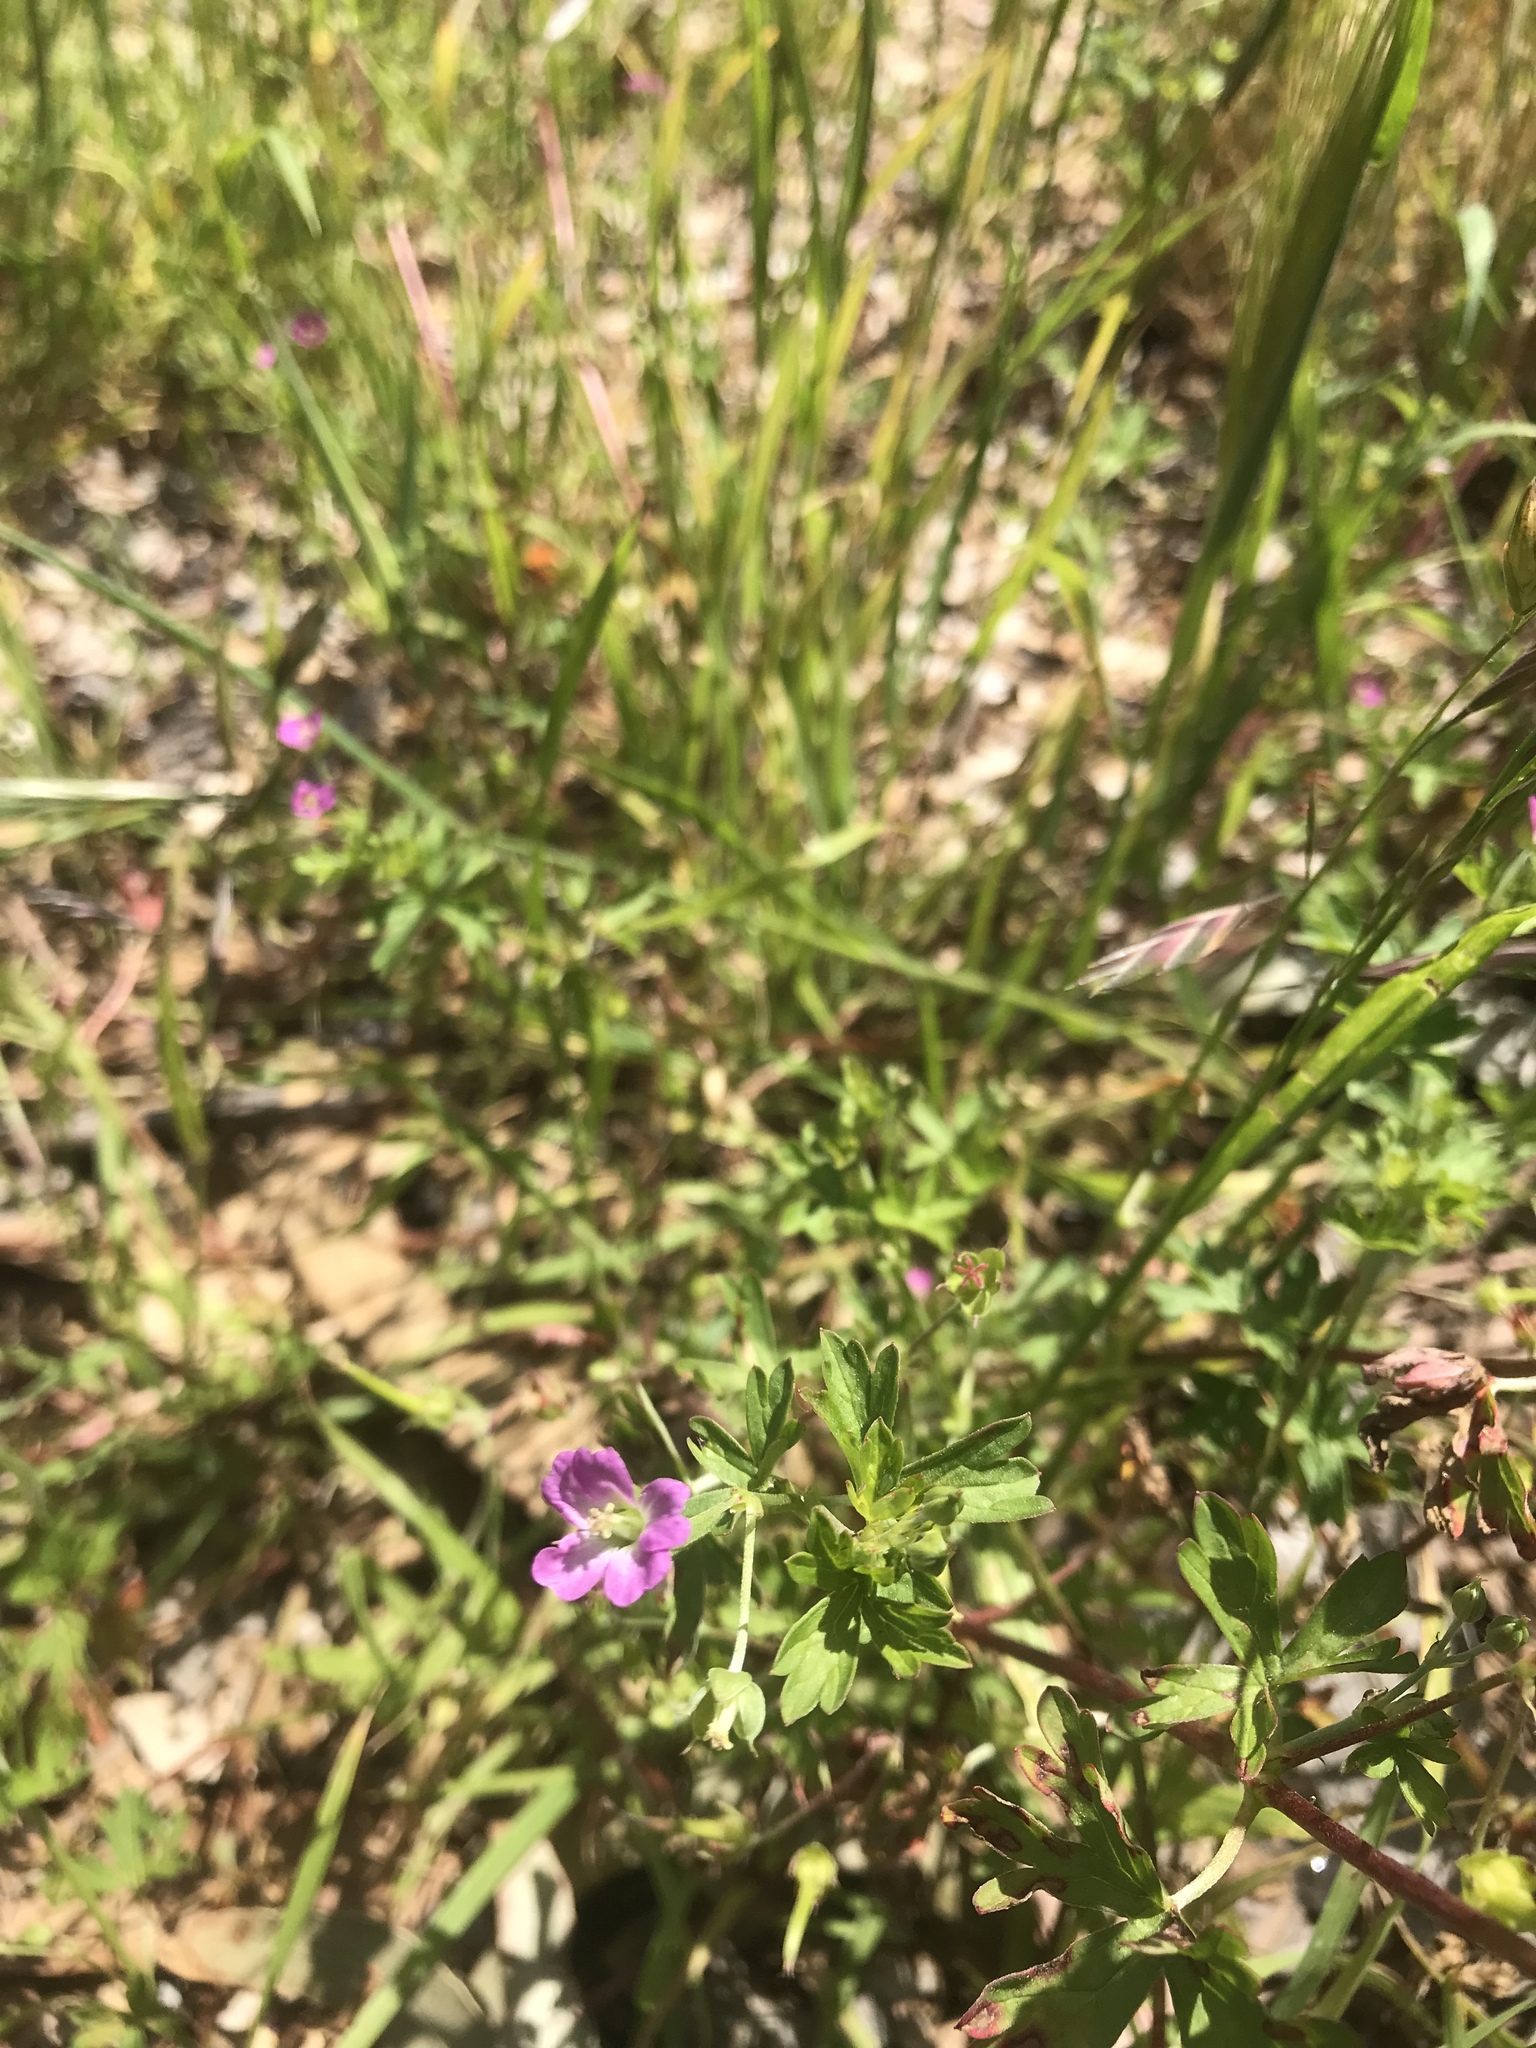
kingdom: Plantae
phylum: Tracheophyta
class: Magnoliopsida
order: Geraniales
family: Geraniaceae
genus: Geranium
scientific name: Geranium core-core
